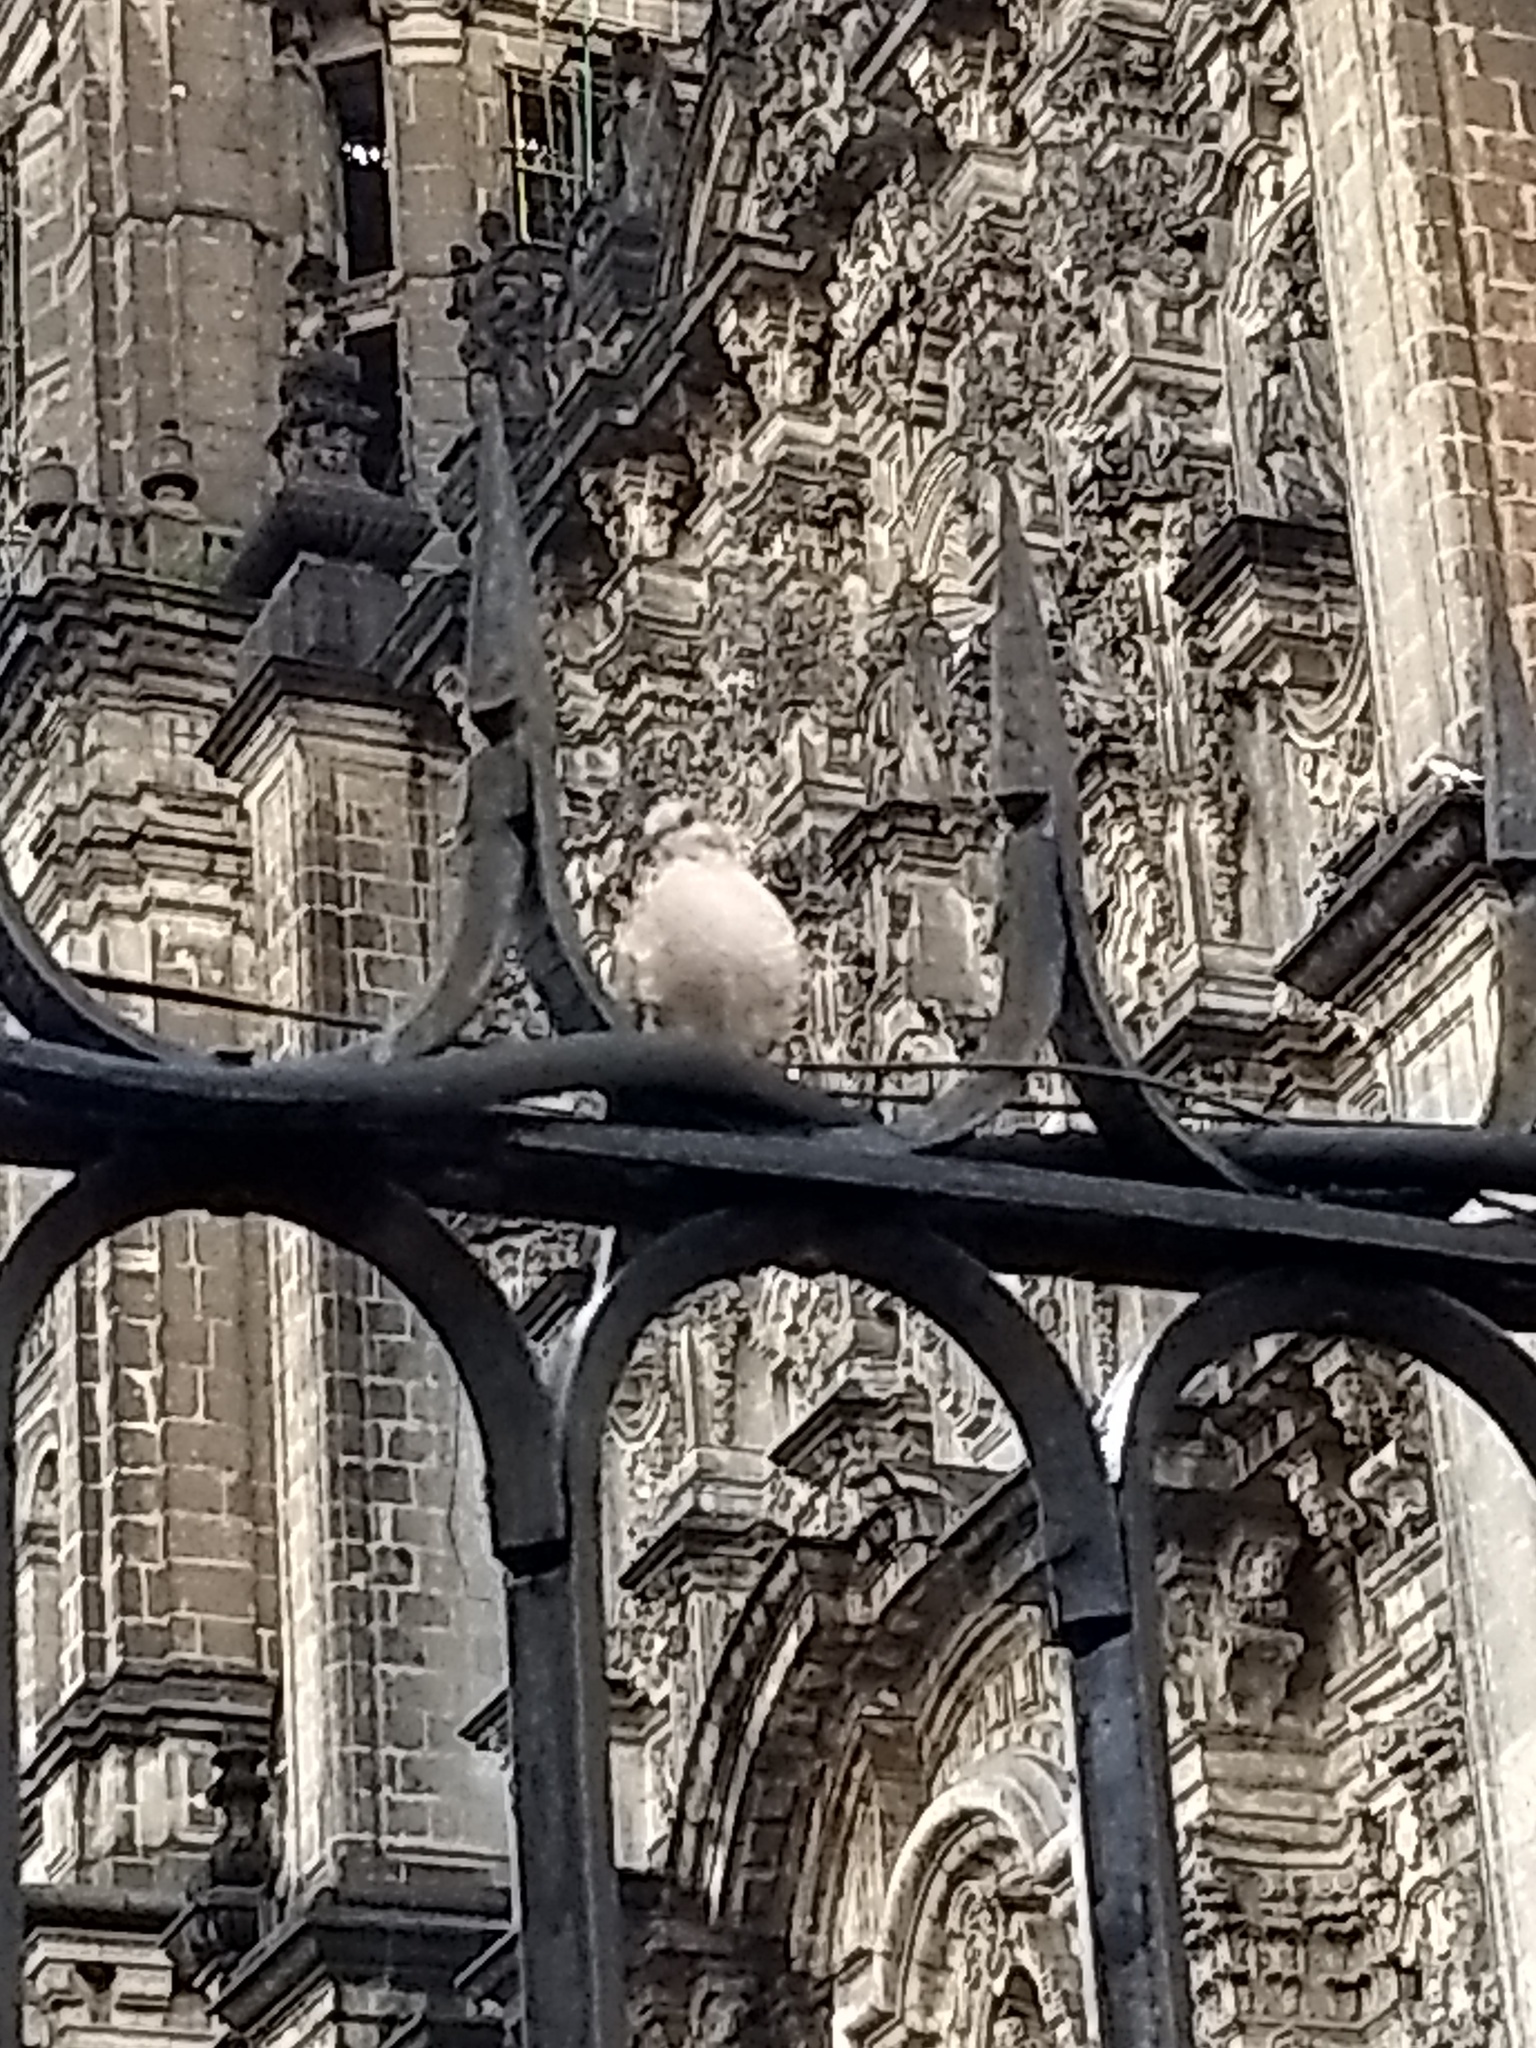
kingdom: Animalia
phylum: Chordata
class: Aves
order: Columbiformes
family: Columbidae
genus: Columbina
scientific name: Columbina inca
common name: Inca dove
